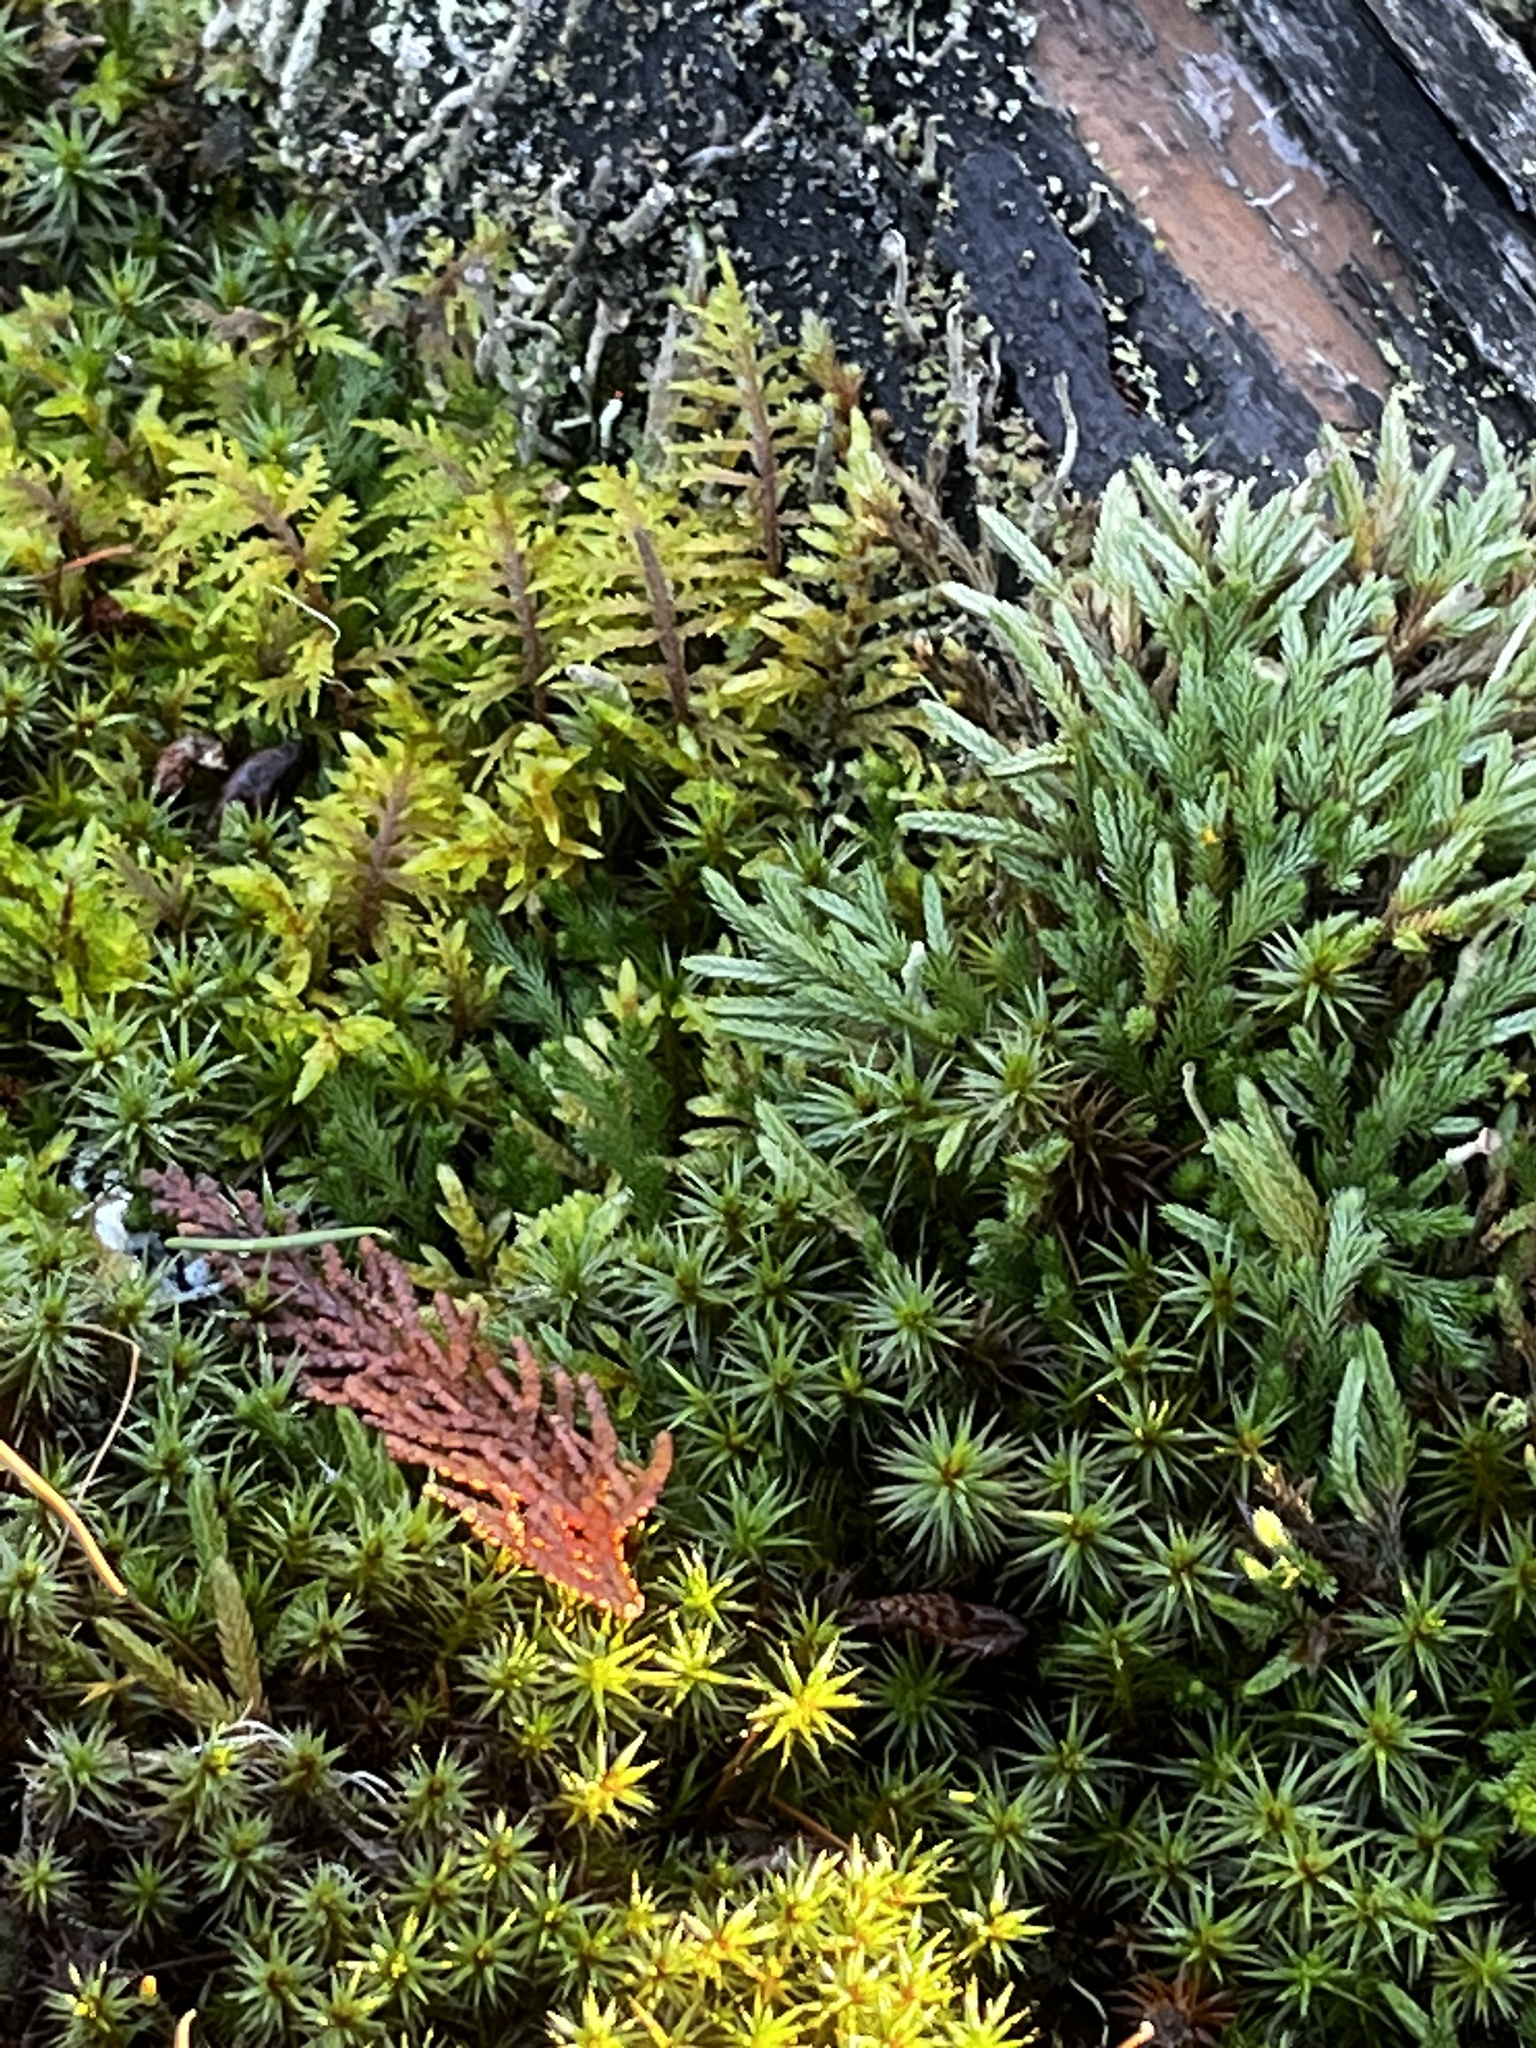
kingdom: Plantae
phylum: Tracheophyta
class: Lycopodiopsida
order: Selaginellales
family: Selaginellaceae
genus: Selaginella
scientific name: Selaginella wallacei
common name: Wallace's selaginella
